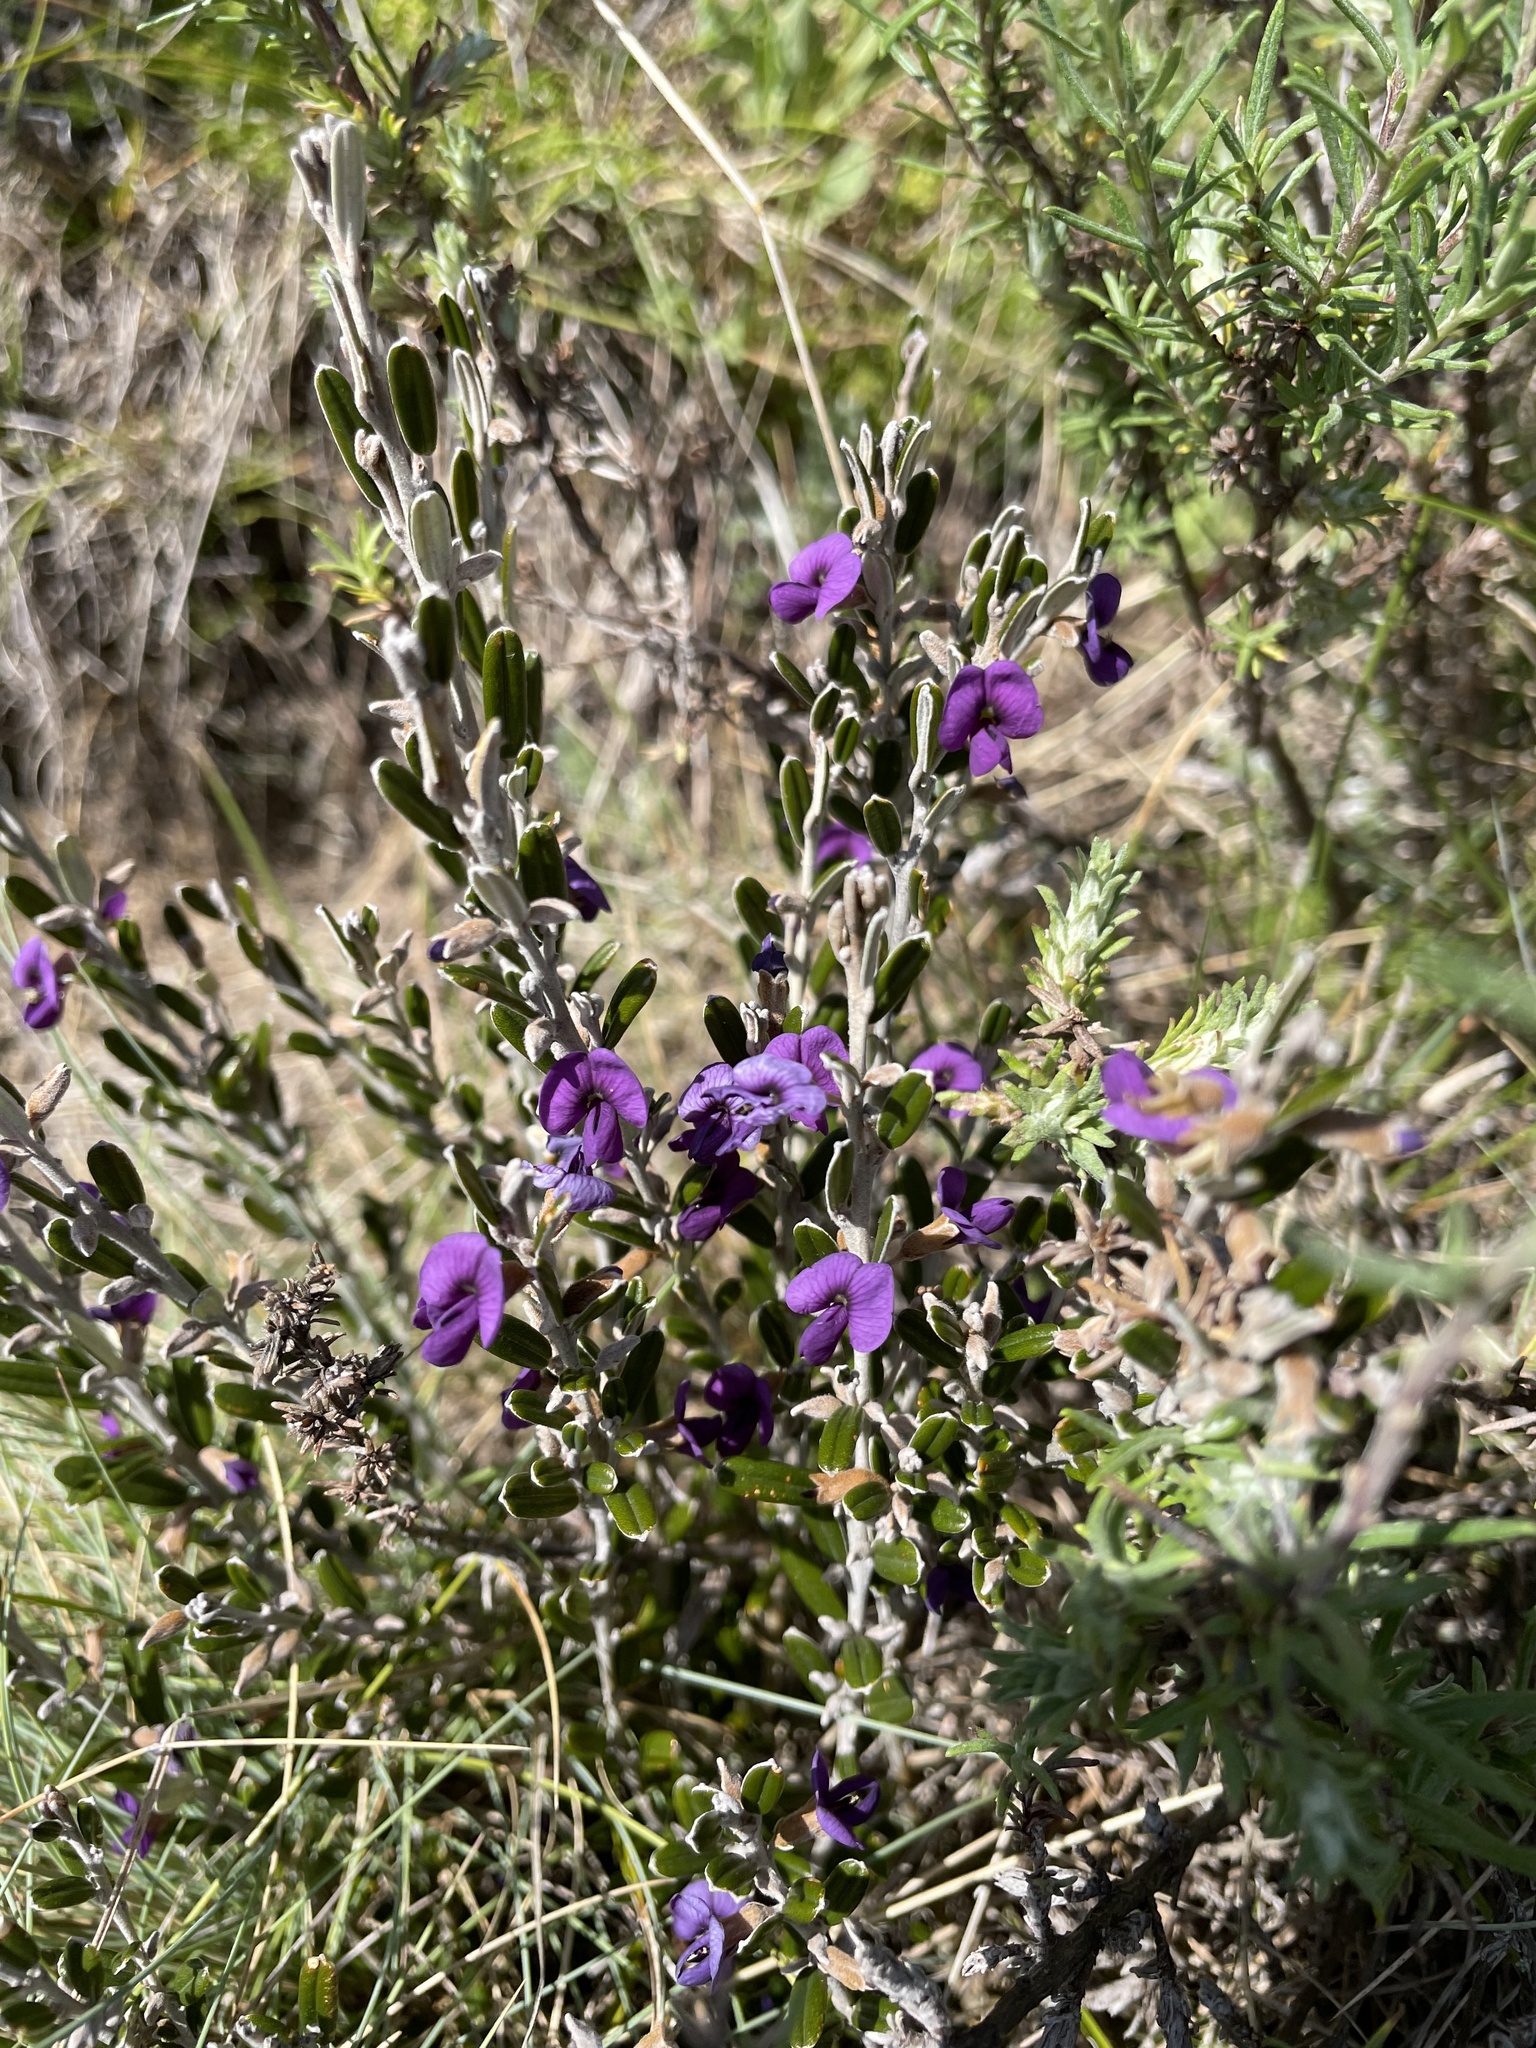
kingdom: Plantae
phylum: Tracheophyta
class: Magnoliopsida
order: Fabales
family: Fabaceae
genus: Hovea
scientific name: Hovea montana
